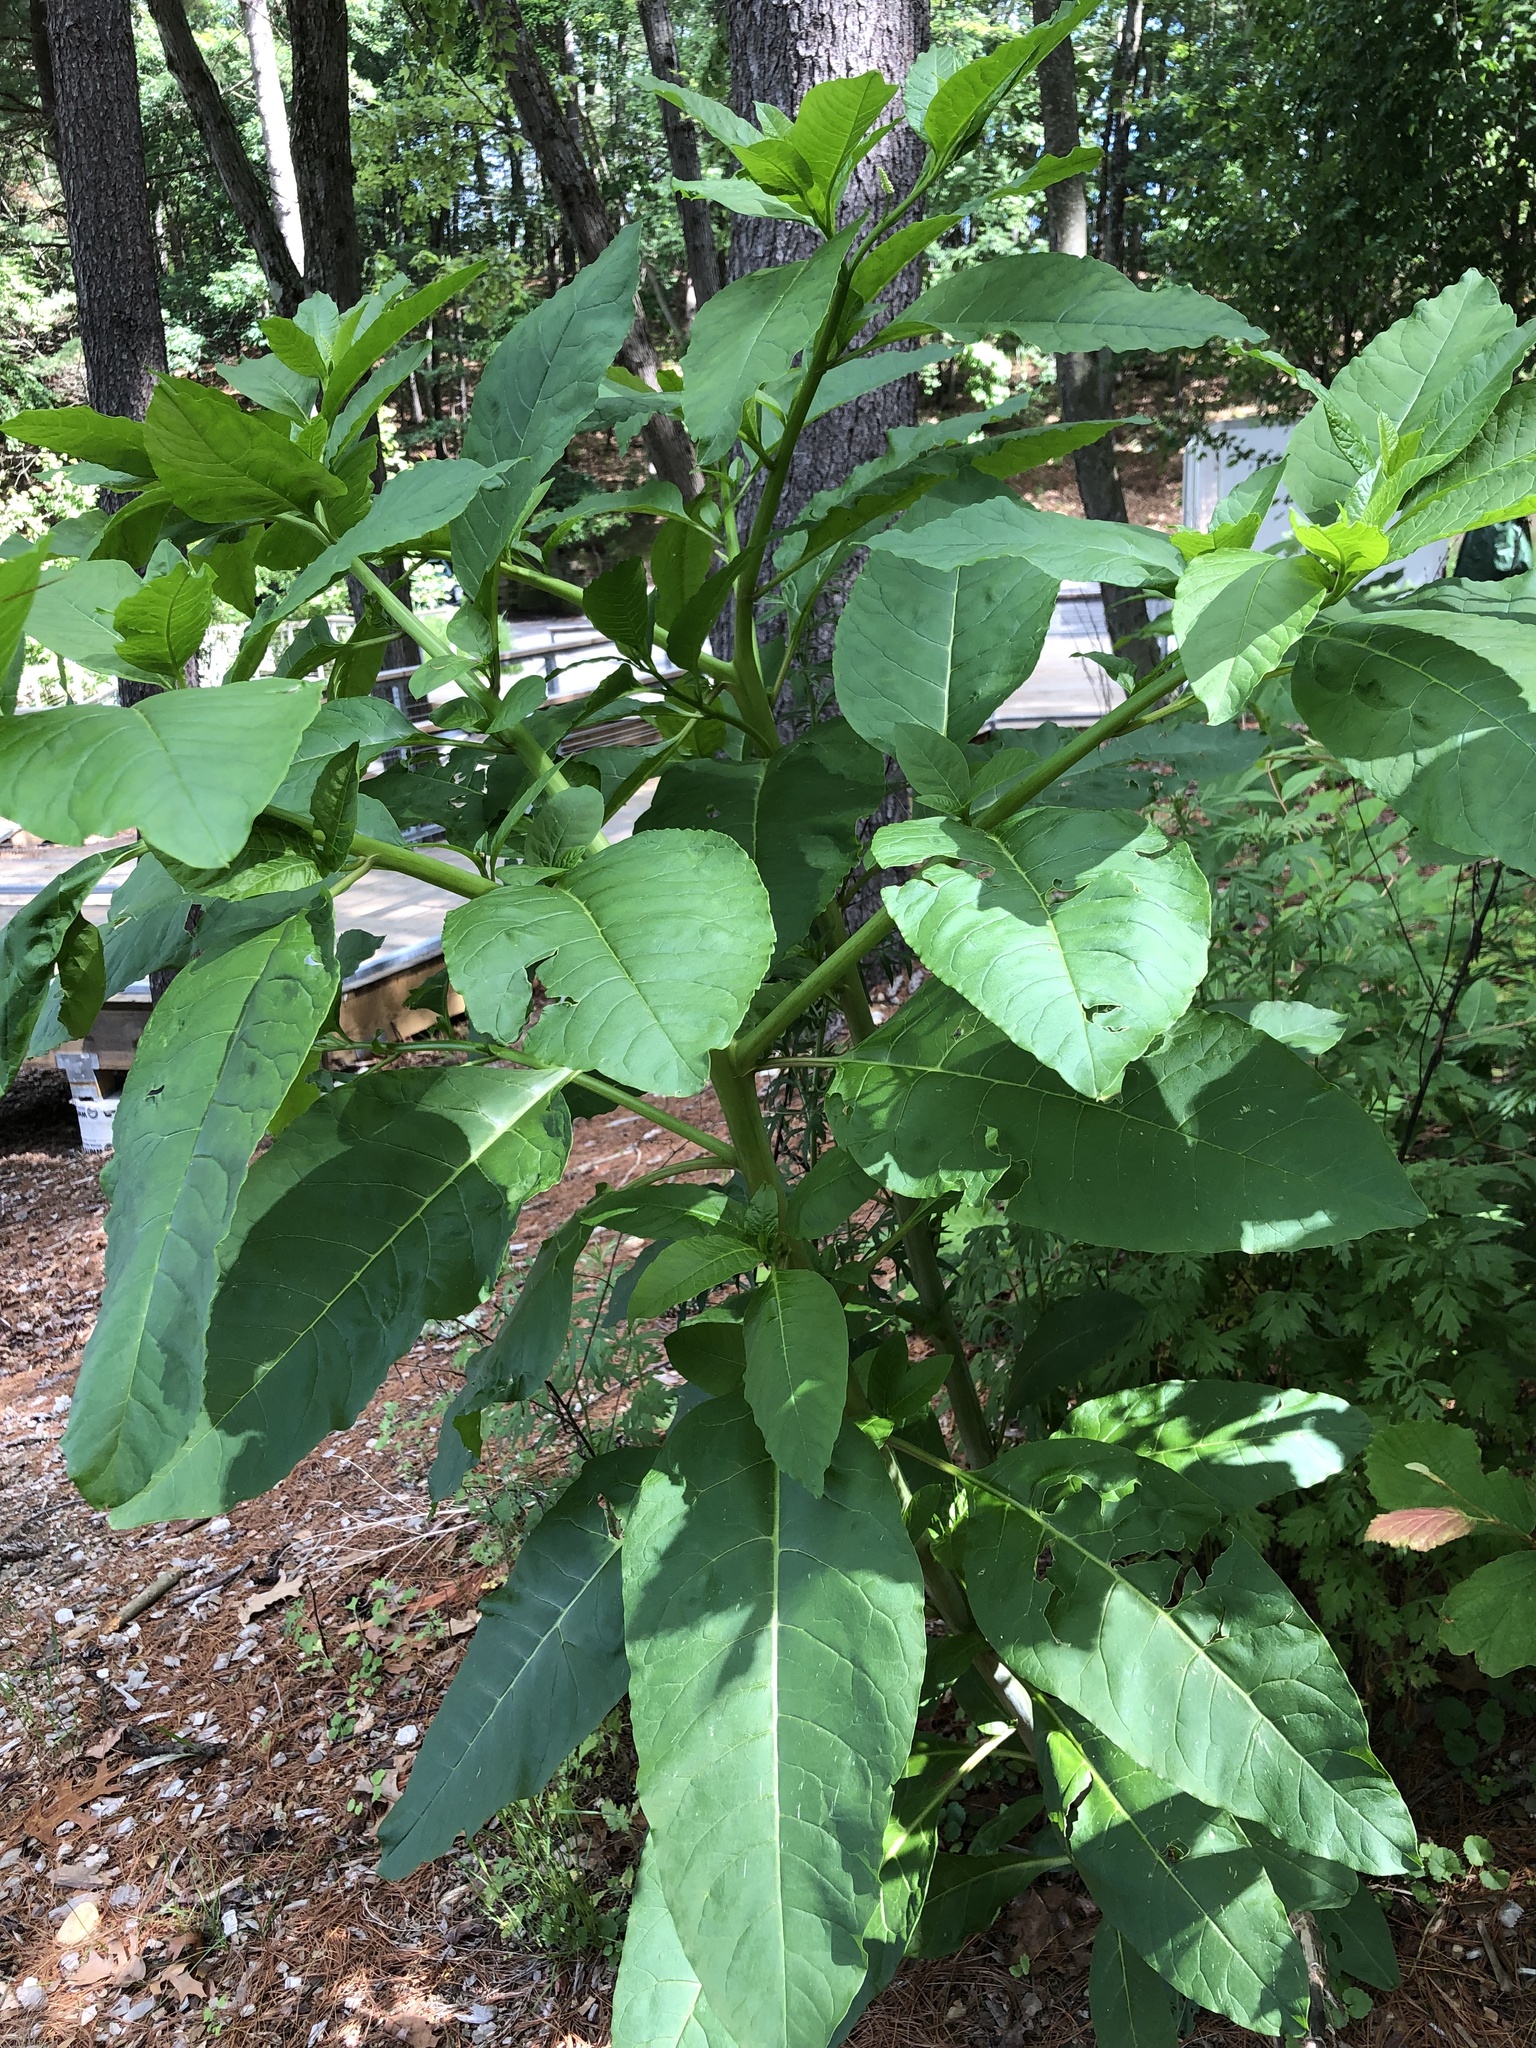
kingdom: Plantae
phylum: Tracheophyta
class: Magnoliopsida
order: Caryophyllales
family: Phytolaccaceae
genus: Phytolacca
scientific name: Phytolacca americana
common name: American pokeweed
